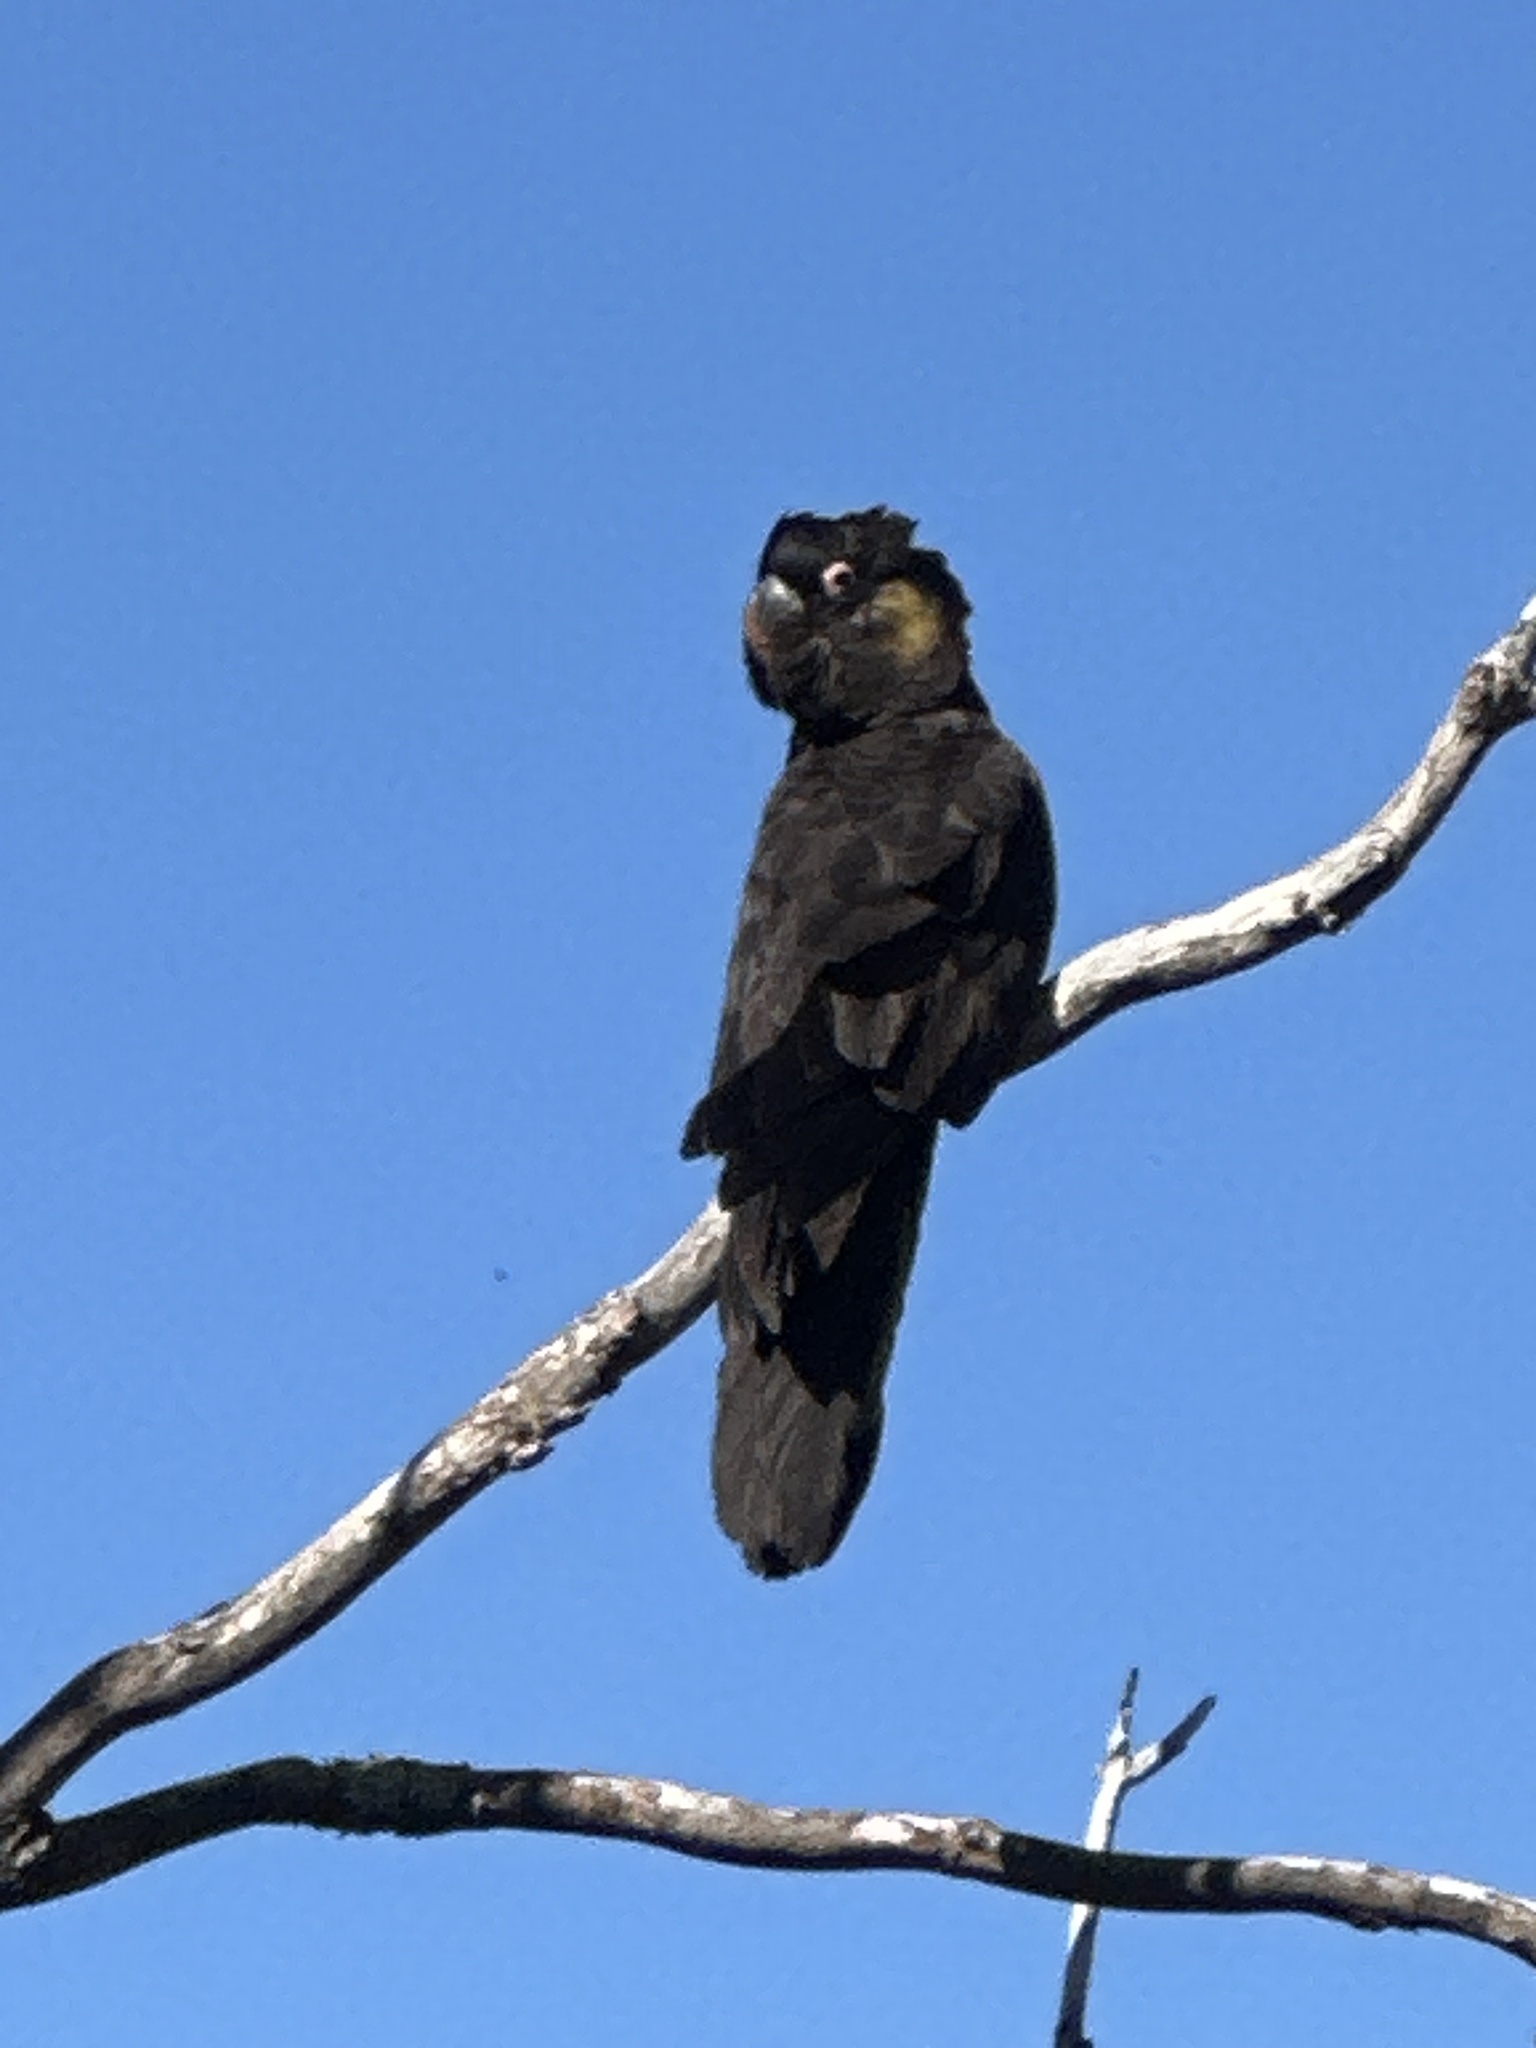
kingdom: Animalia
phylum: Chordata
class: Aves
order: Psittaciformes
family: Cacatuidae
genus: Zanda
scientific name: Zanda funerea
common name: Yellow-tailed black-cockatoo
